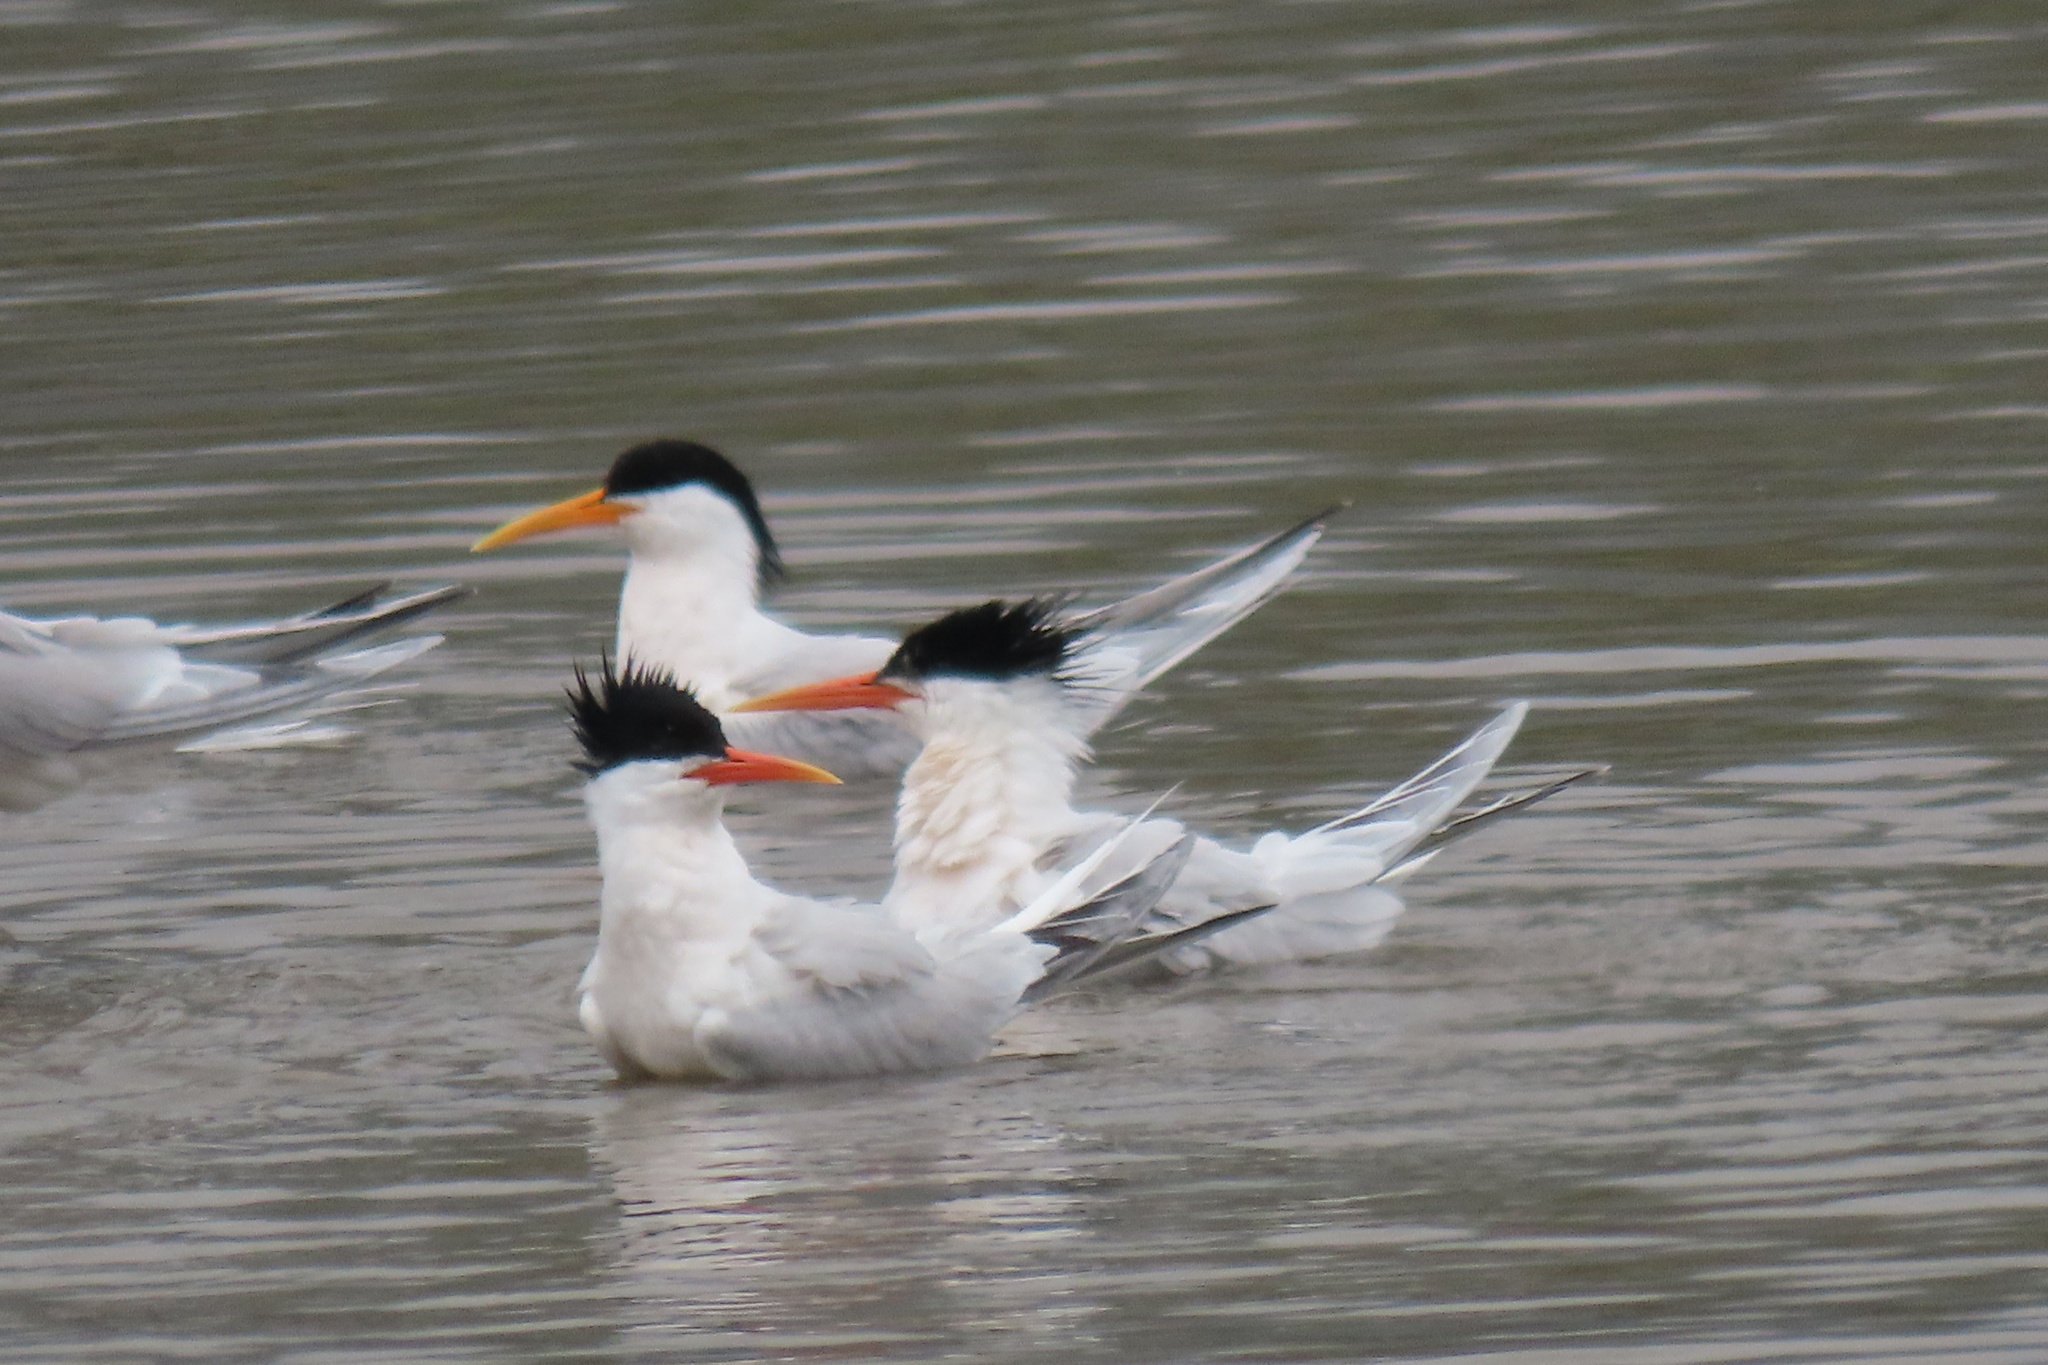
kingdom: Animalia
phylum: Chordata
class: Aves
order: Charadriiformes
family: Laridae
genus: Thalasseus
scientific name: Thalasseus elegans
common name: Elegant tern
